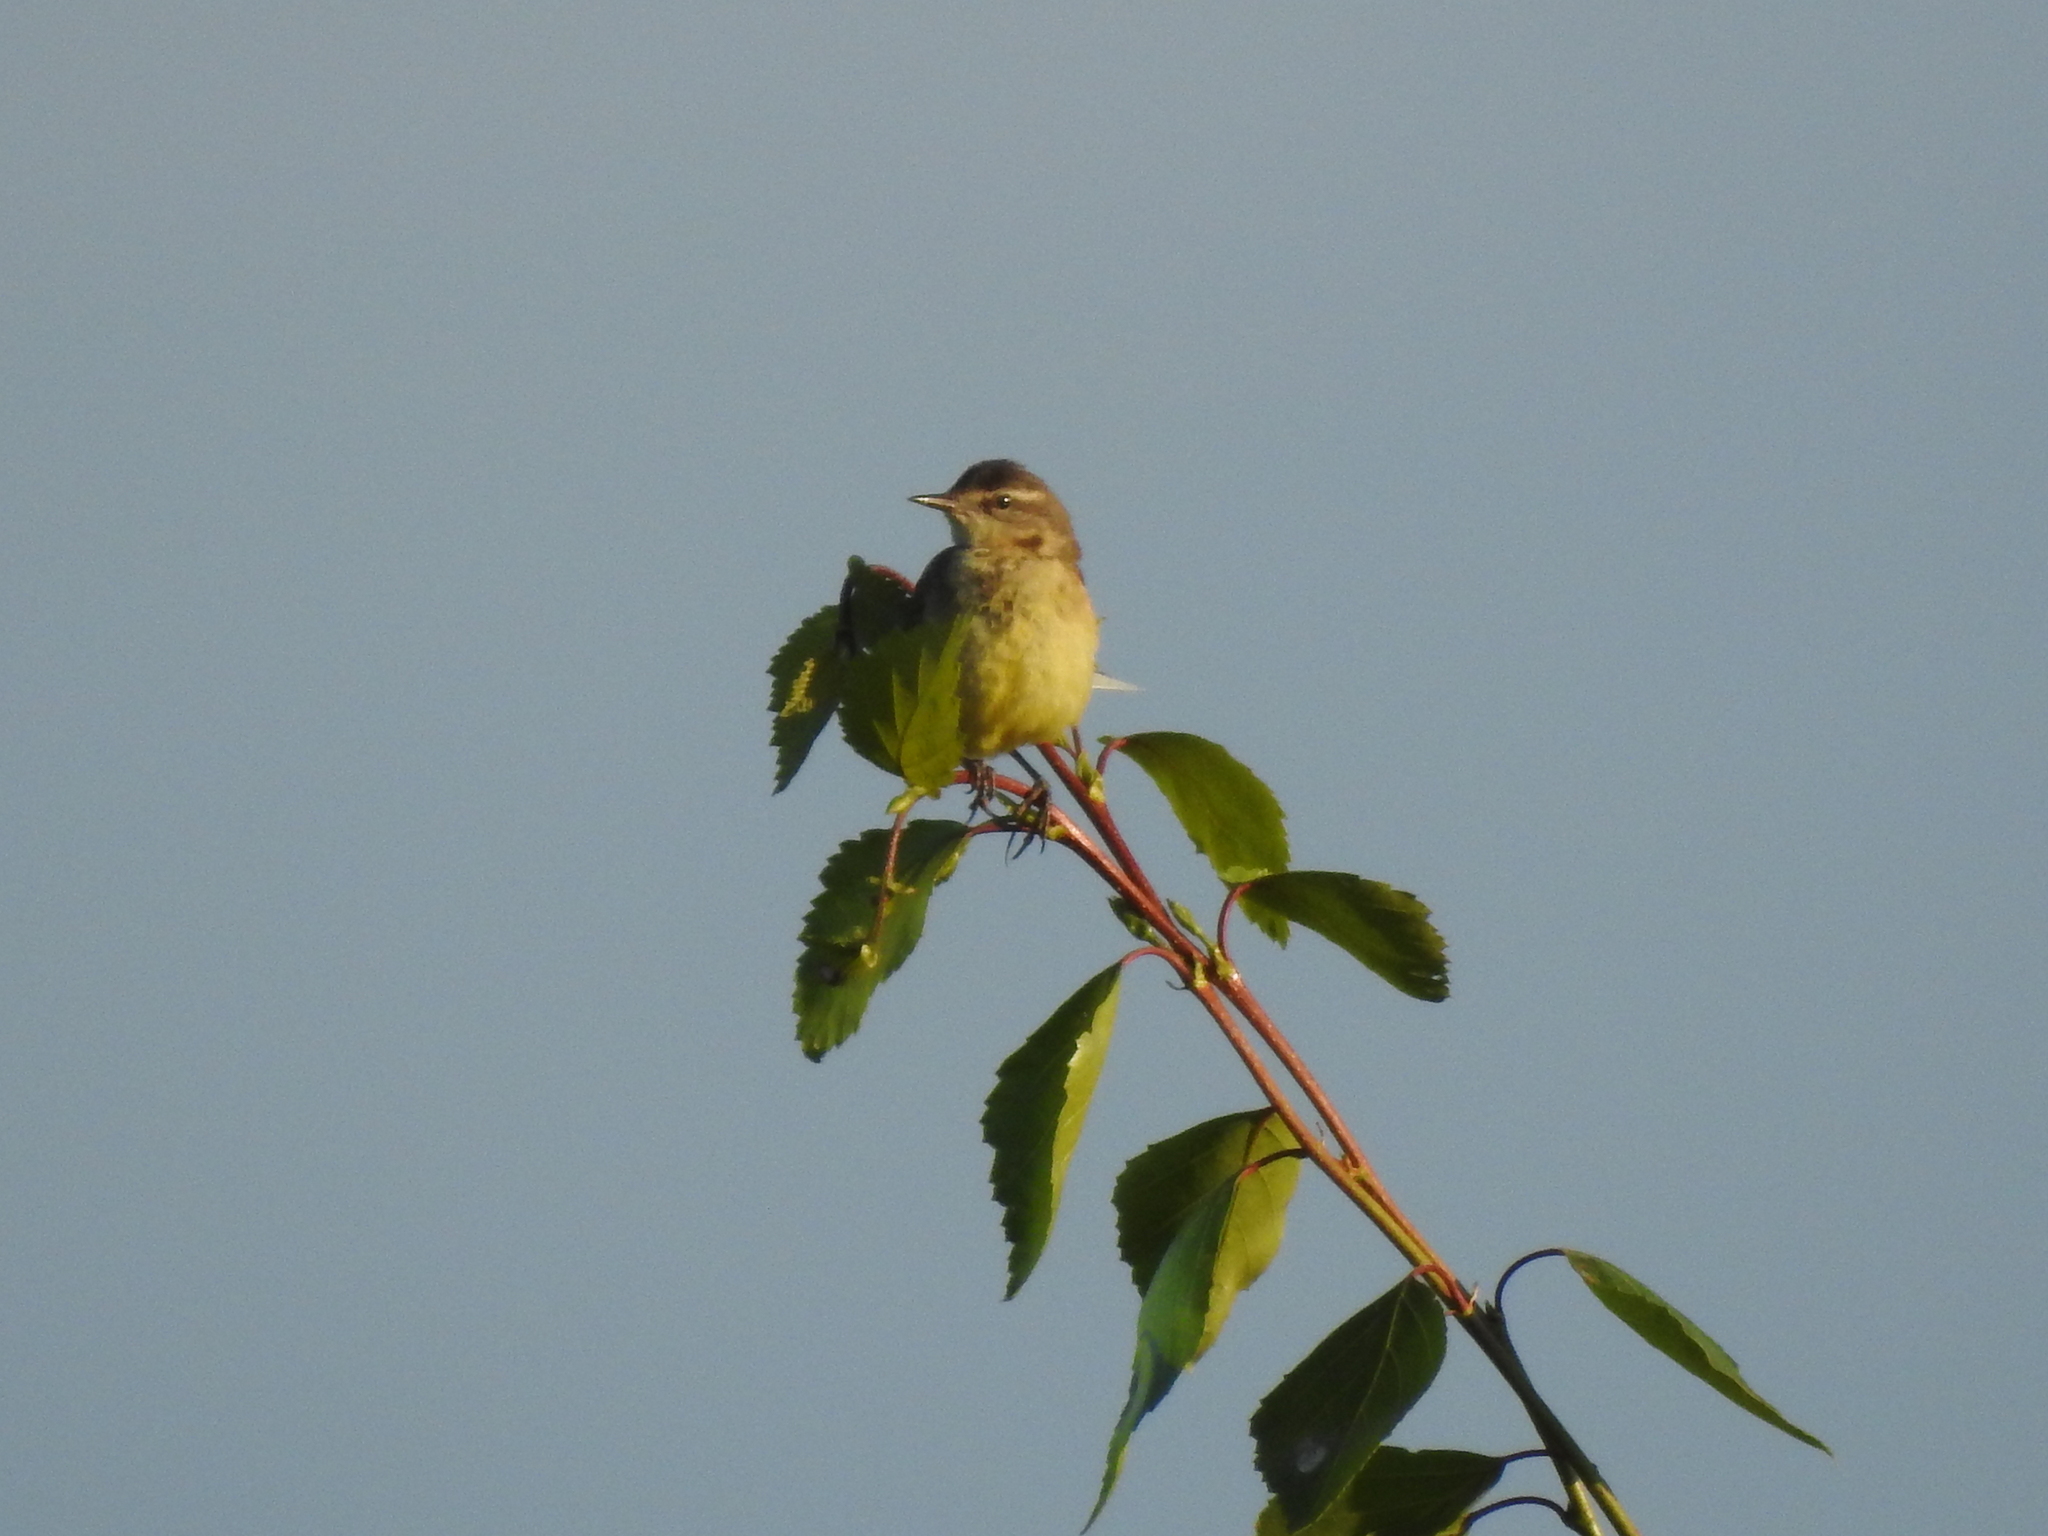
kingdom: Animalia
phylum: Chordata
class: Aves
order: Passeriformes
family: Motacillidae
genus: Motacilla
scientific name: Motacilla flava
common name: Western yellow wagtail
